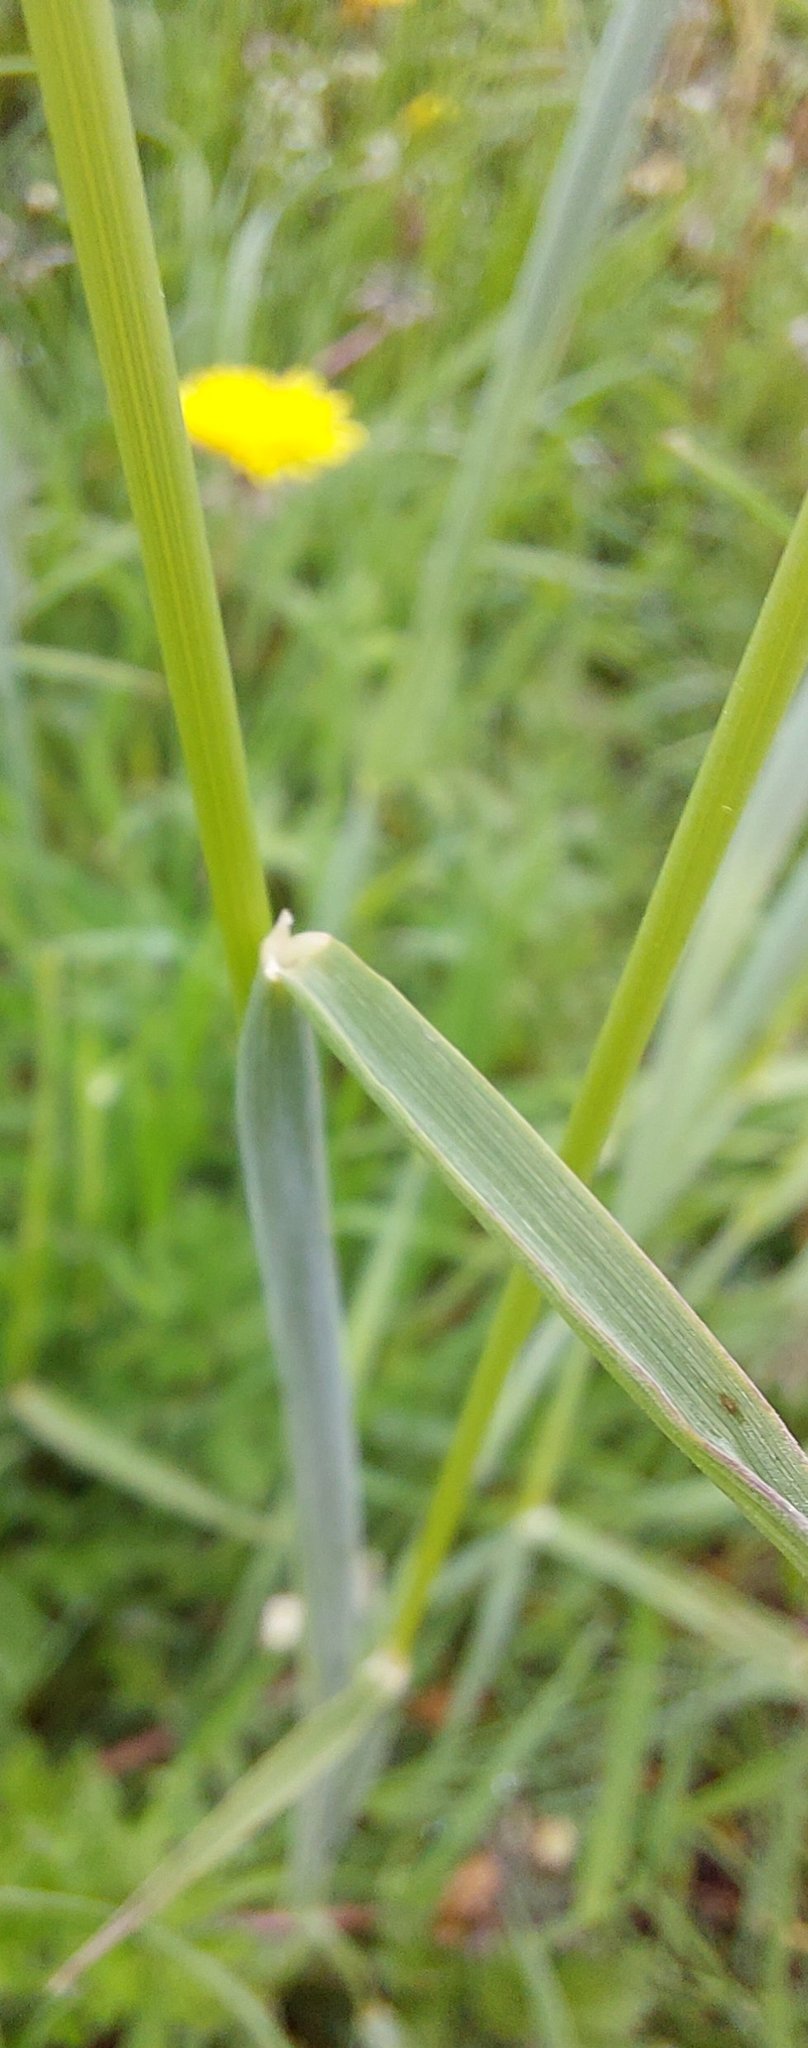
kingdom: Plantae
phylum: Tracheophyta
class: Liliopsida
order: Poales
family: Poaceae
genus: Alopecurus
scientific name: Alopecurus pratensis
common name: Meadow foxtail
